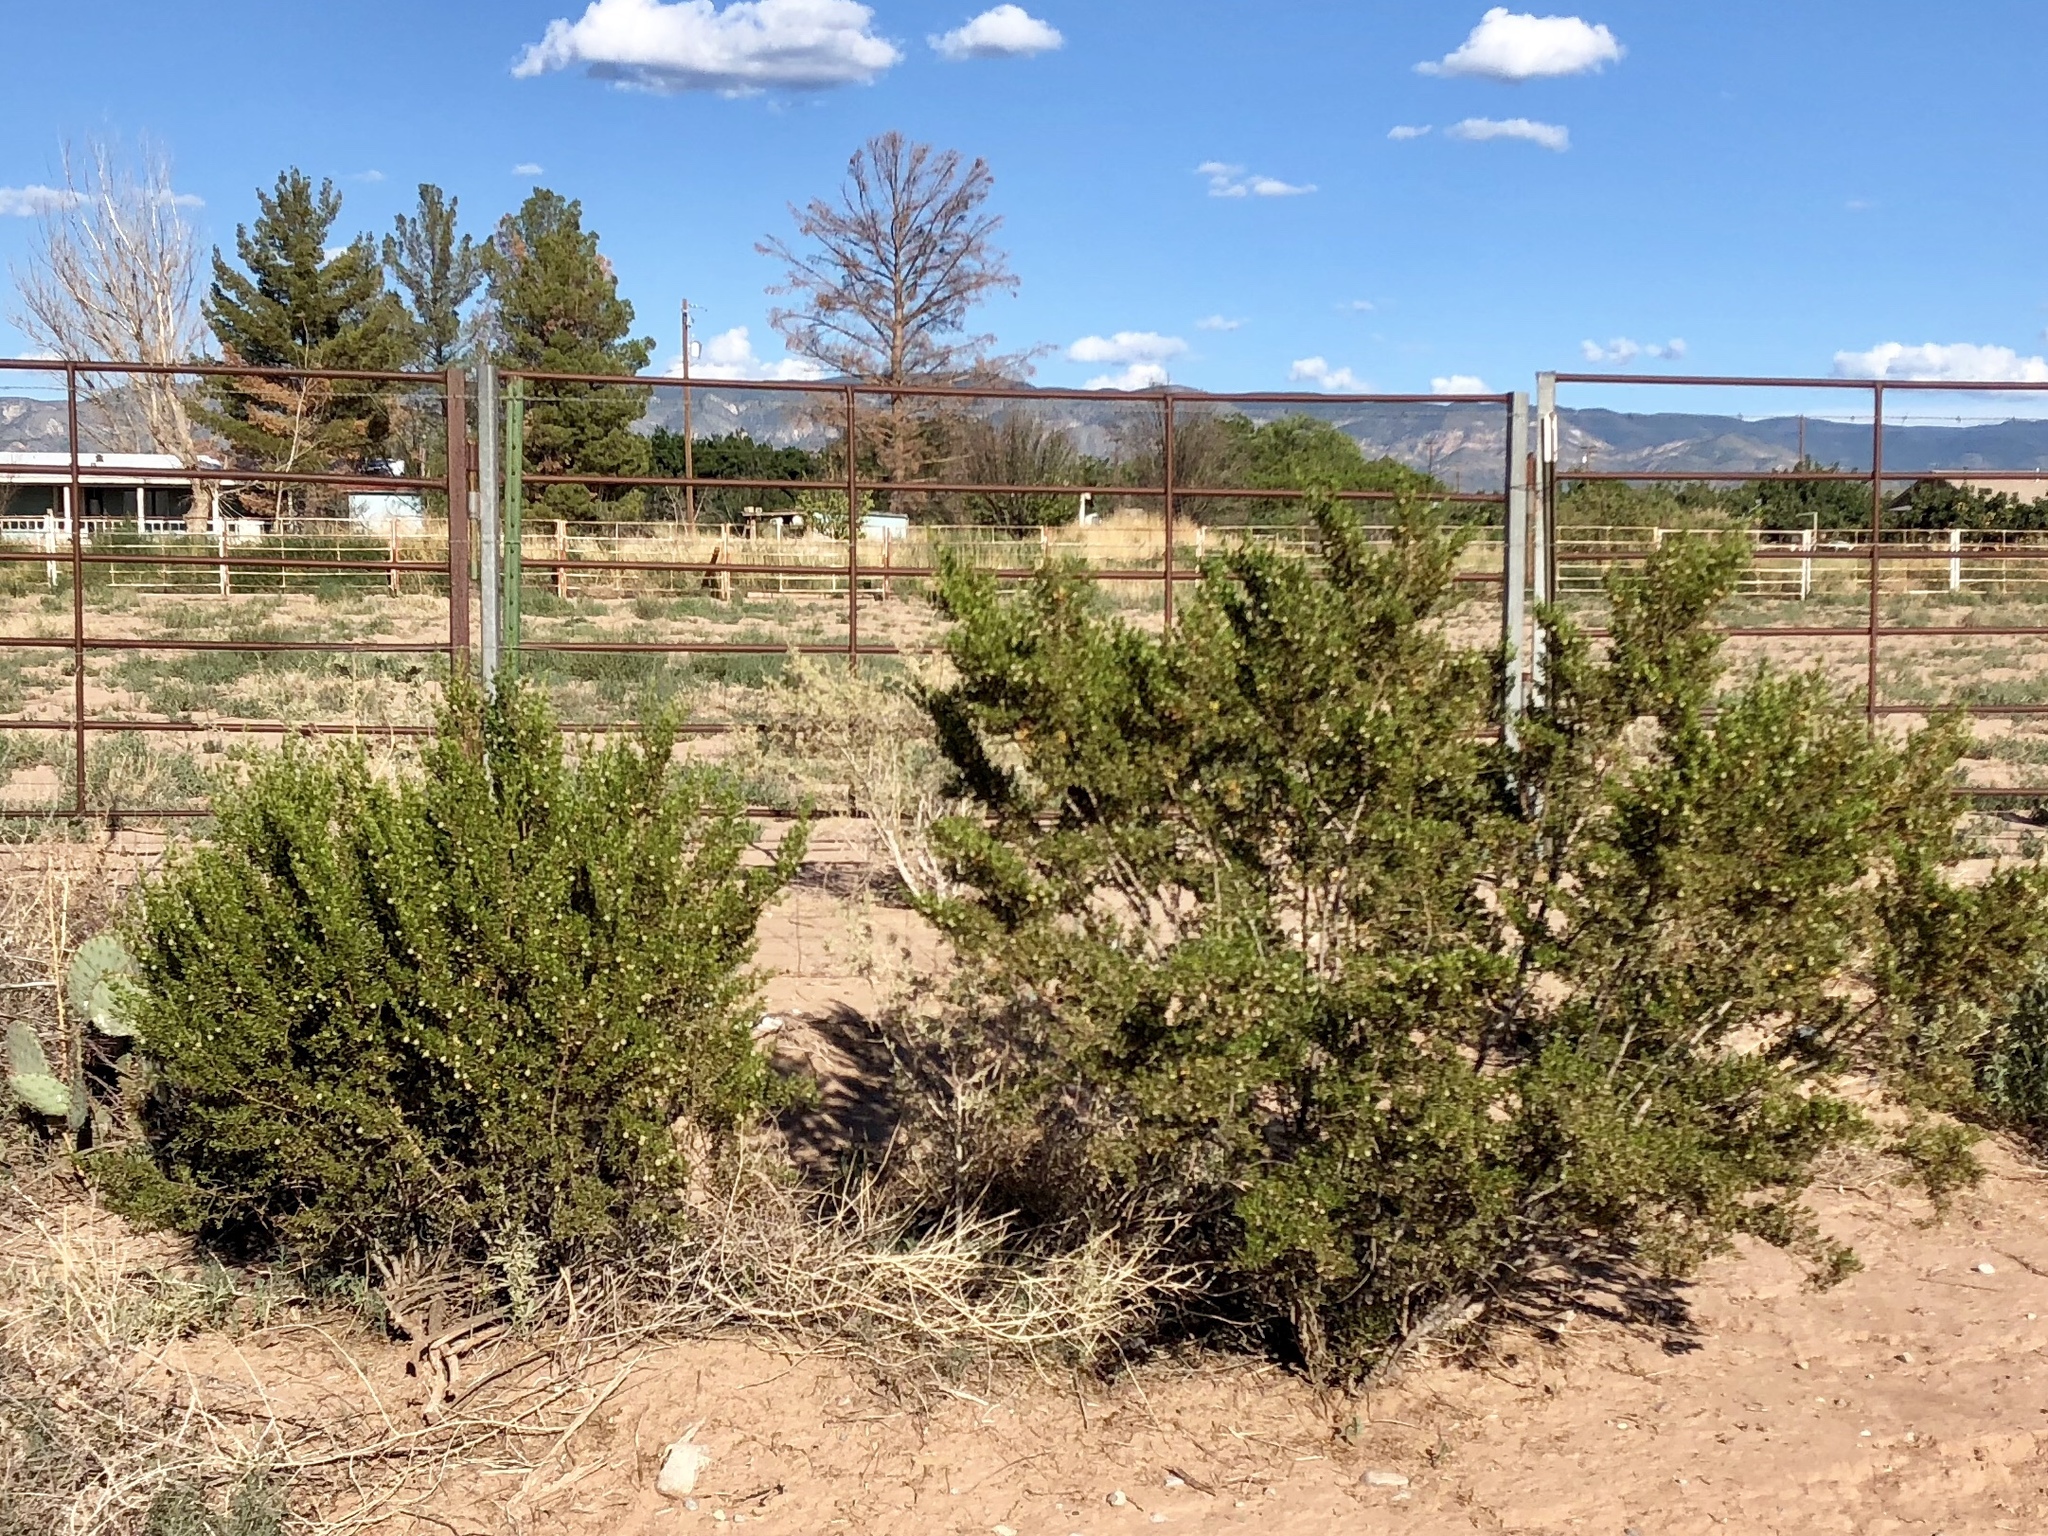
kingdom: Plantae
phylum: Tracheophyta
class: Magnoliopsida
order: Zygophyllales
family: Zygophyllaceae
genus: Larrea
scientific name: Larrea tridentata
